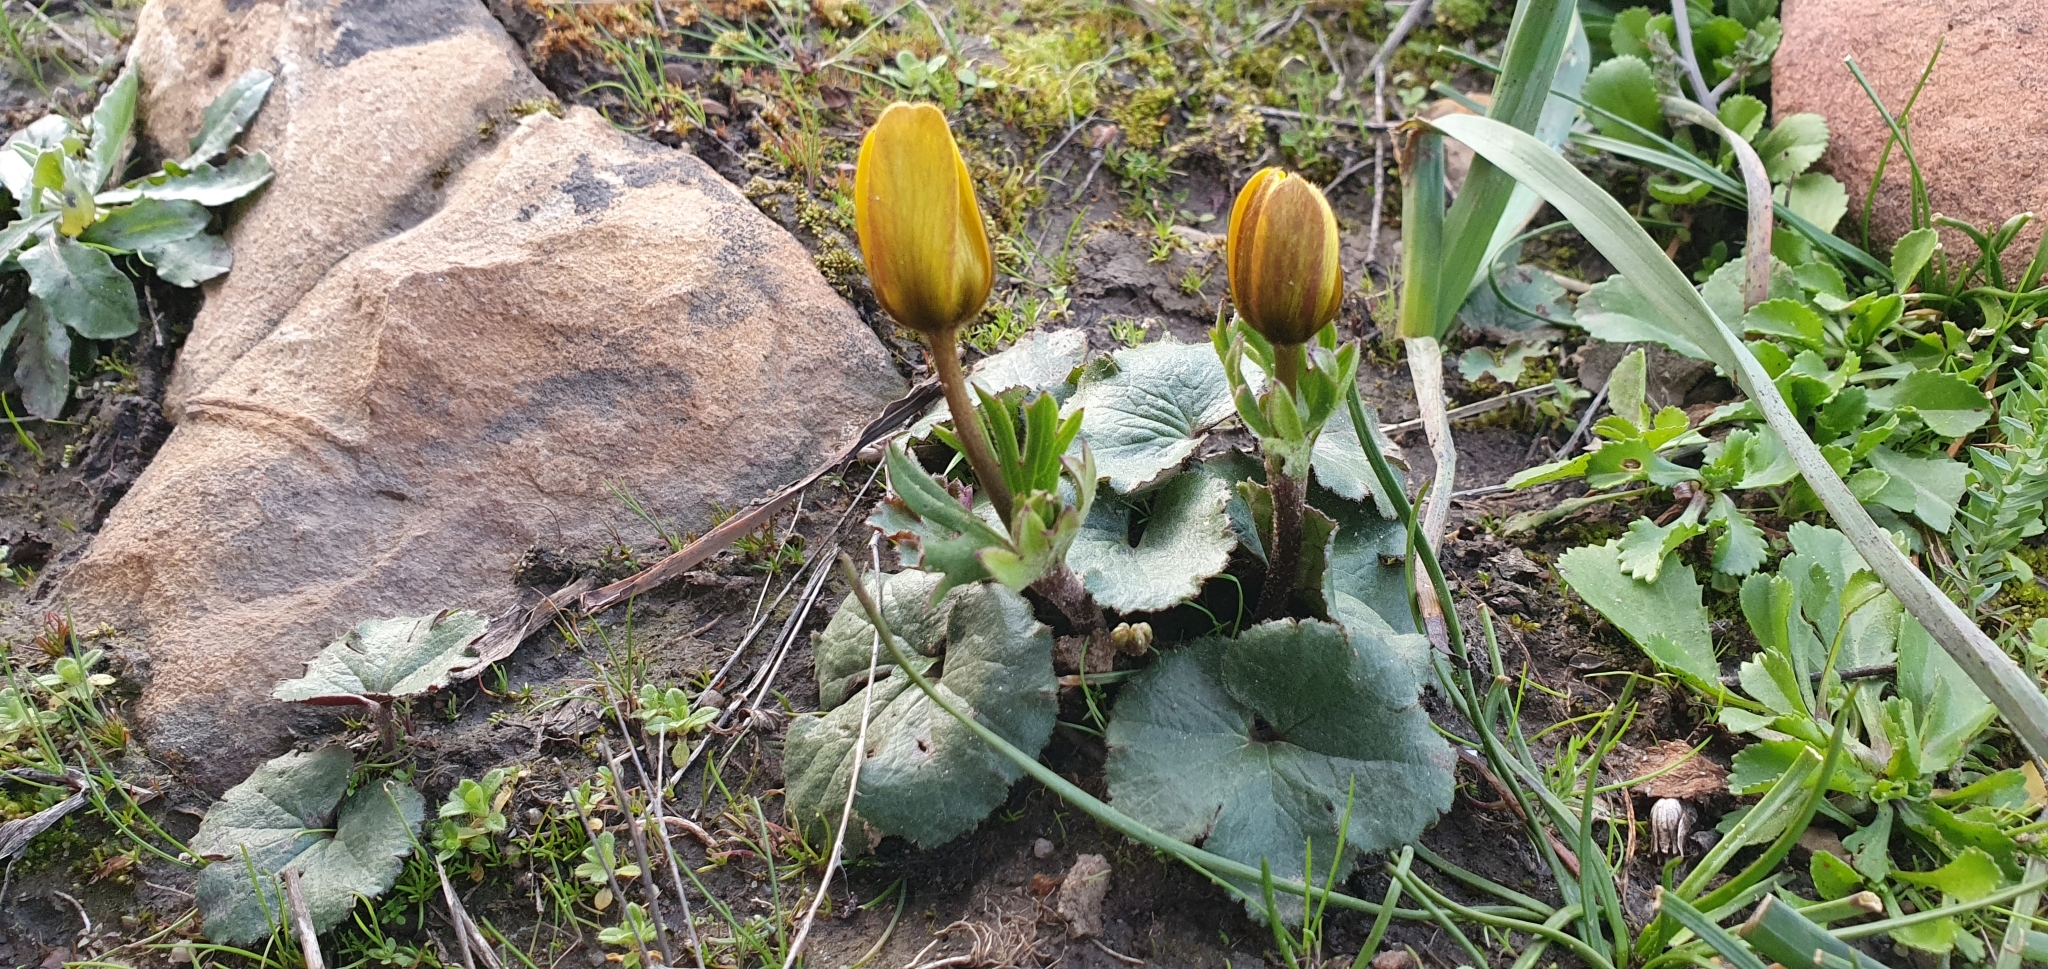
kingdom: Plantae
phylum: Tracheophyta
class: Magnoliopsida
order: Ranunculales
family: Ranunculaceae
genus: Anemone
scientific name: Anemone palmata
